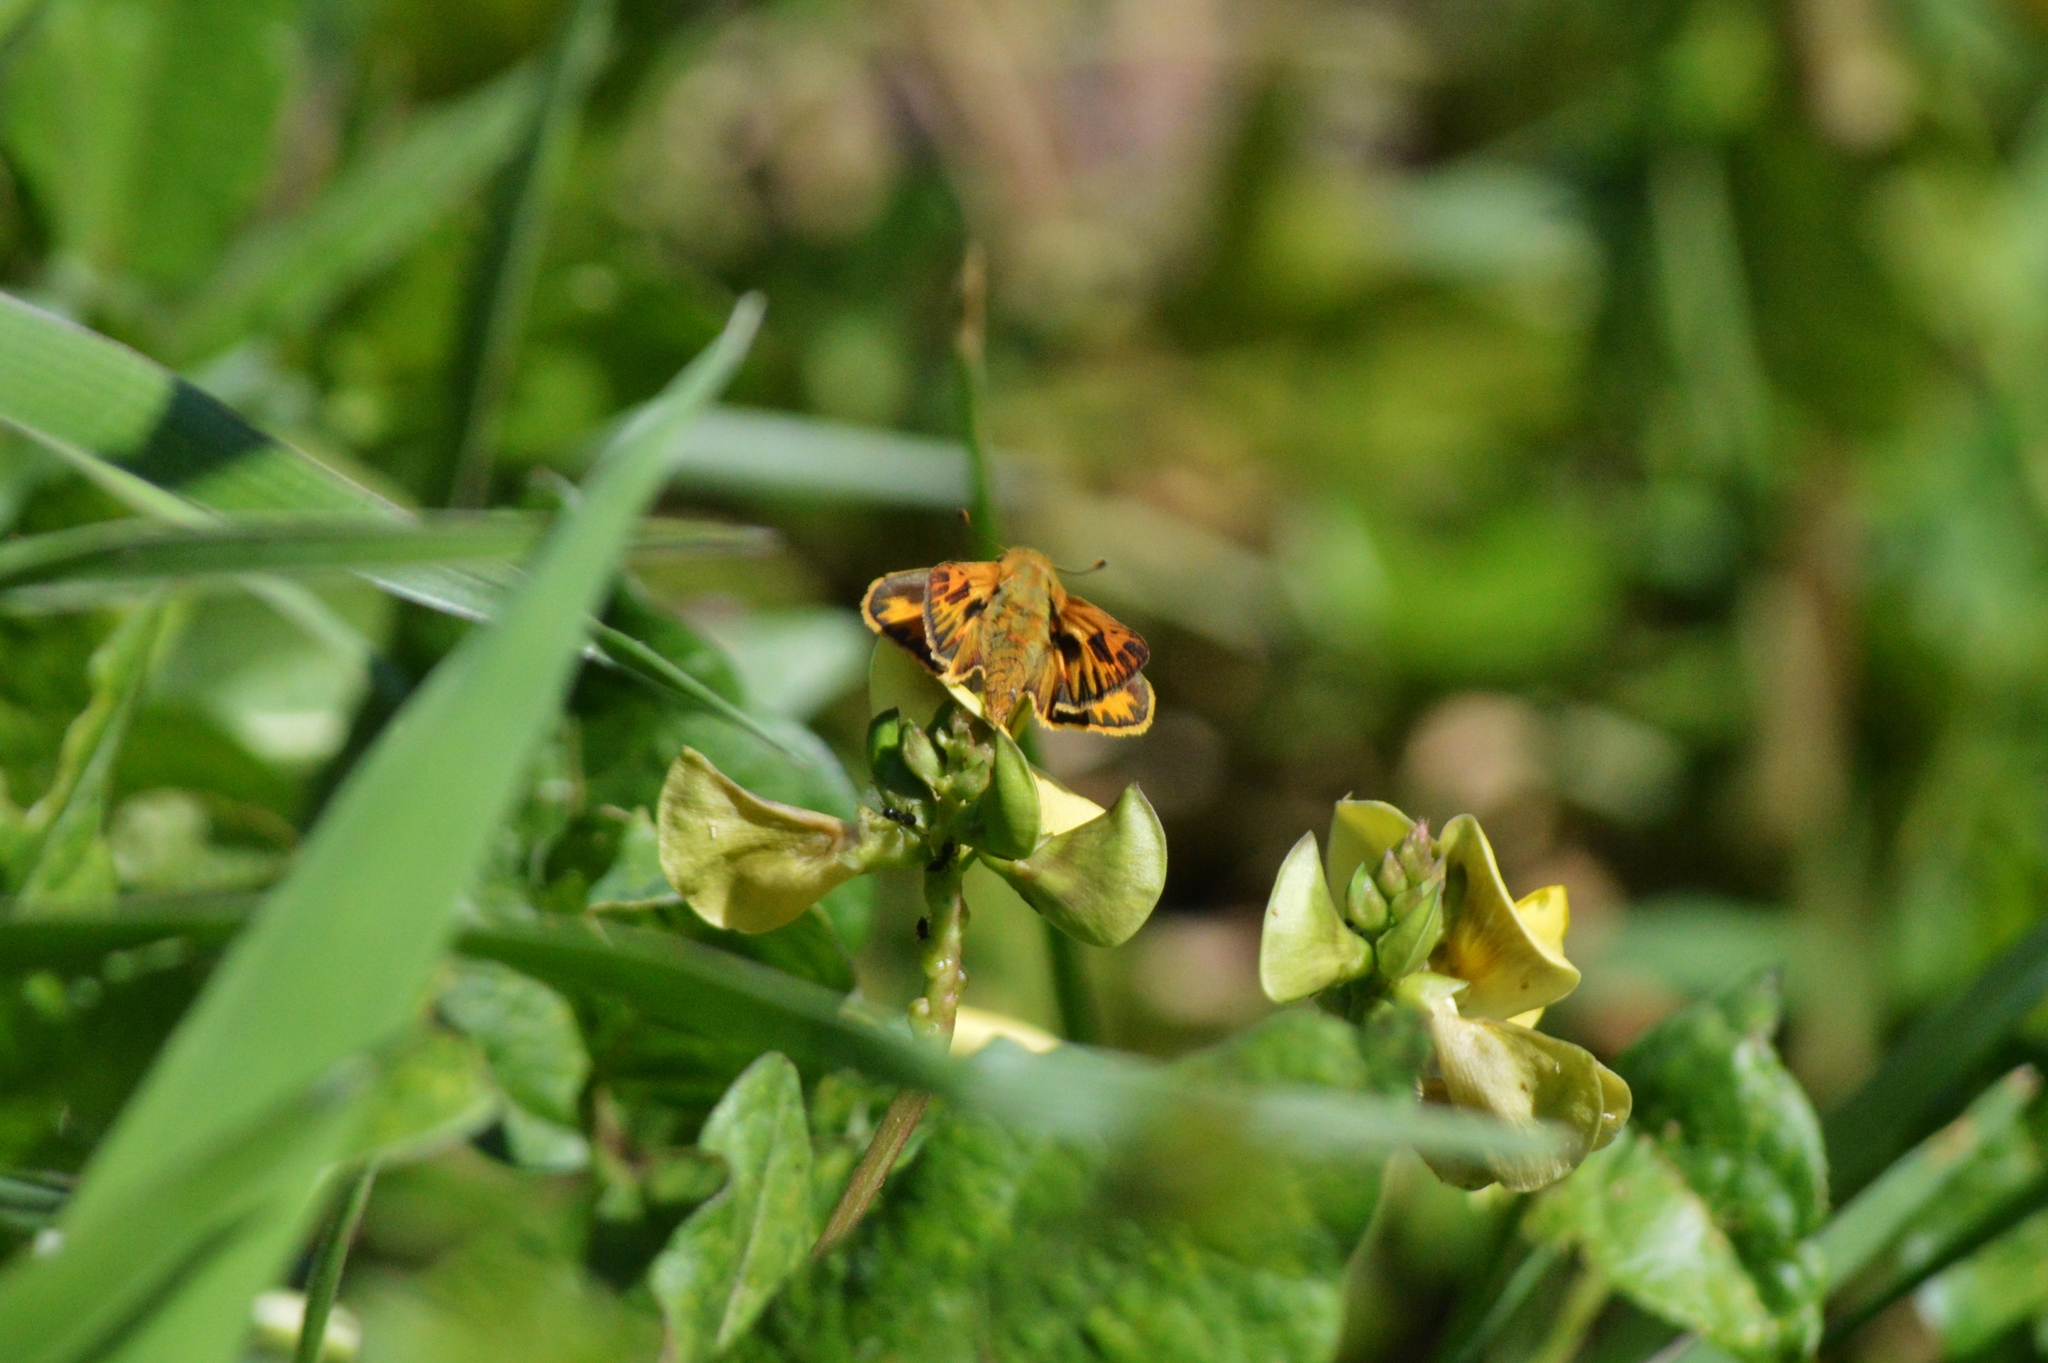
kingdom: Animalia
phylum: Arthropoda
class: Insecta
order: Lepidoptera
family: Hesperiidae
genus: Hylephila
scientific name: Hylephila phyleus
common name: Fiery skipper
